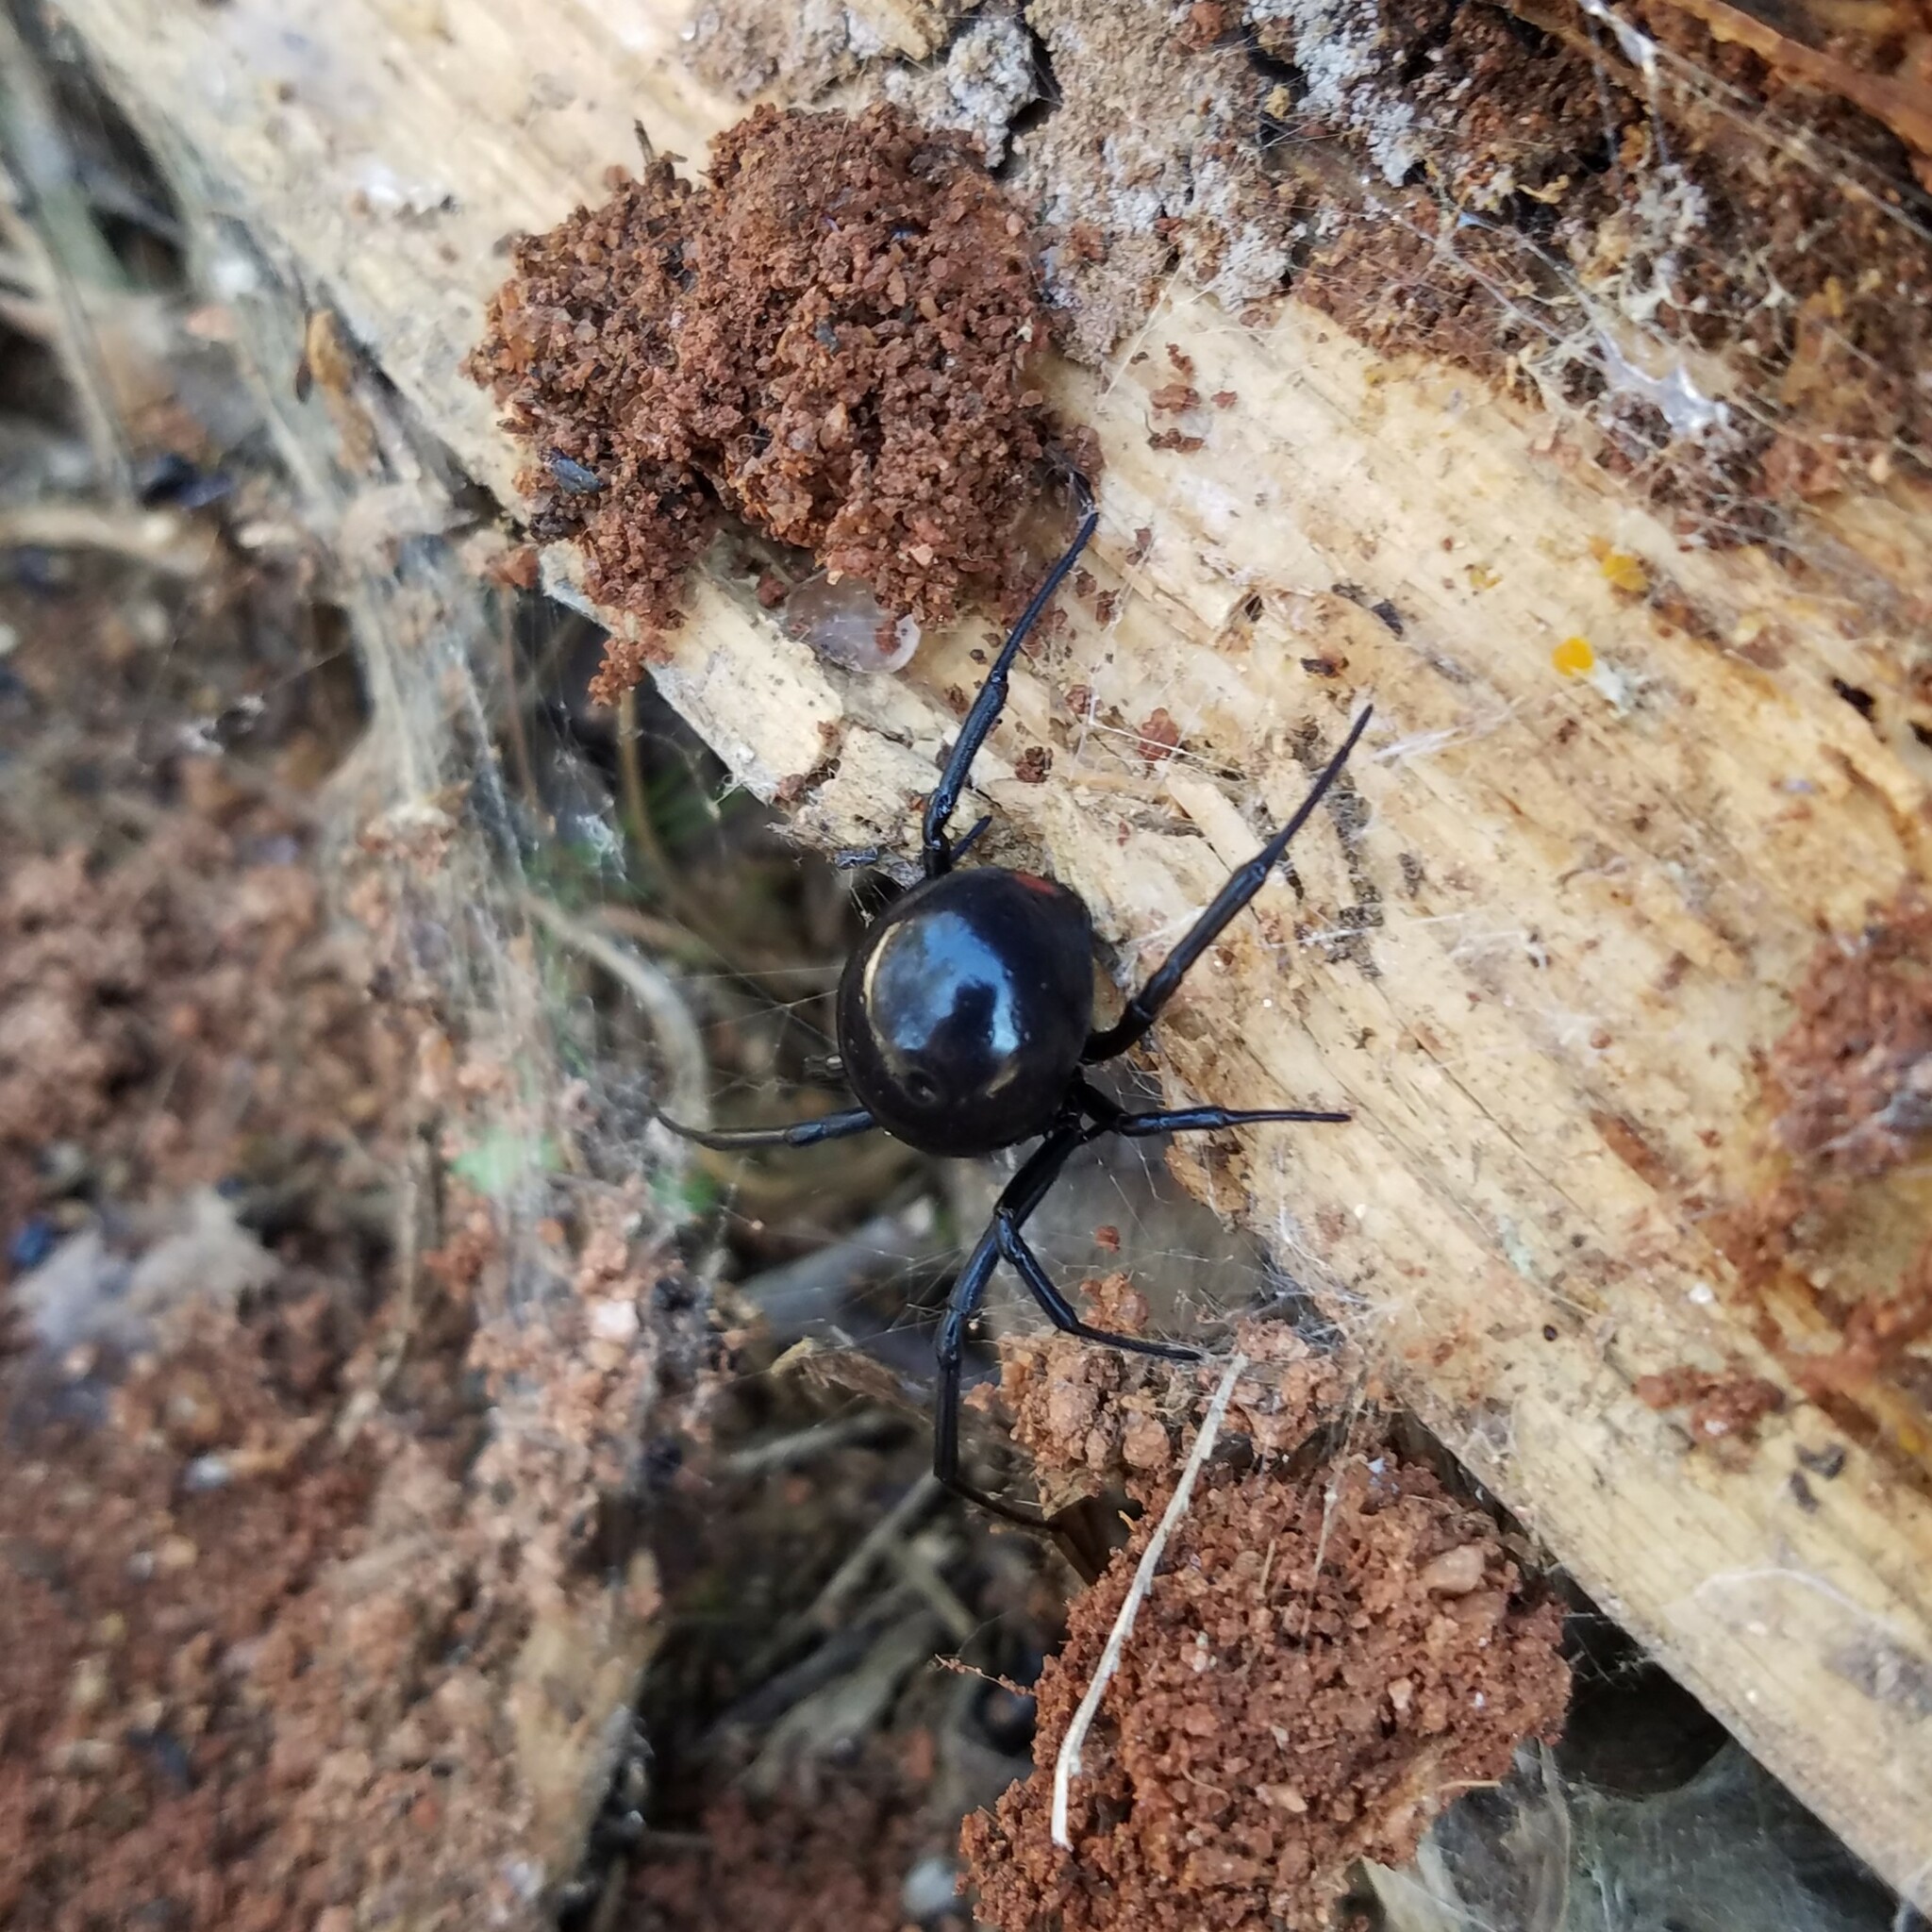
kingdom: Animalia
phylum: Arthropoda
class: Arachnida
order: Araneae
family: Theridiidae
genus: Latrodectus
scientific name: Latrodectus mactans
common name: Cobweb spiders
